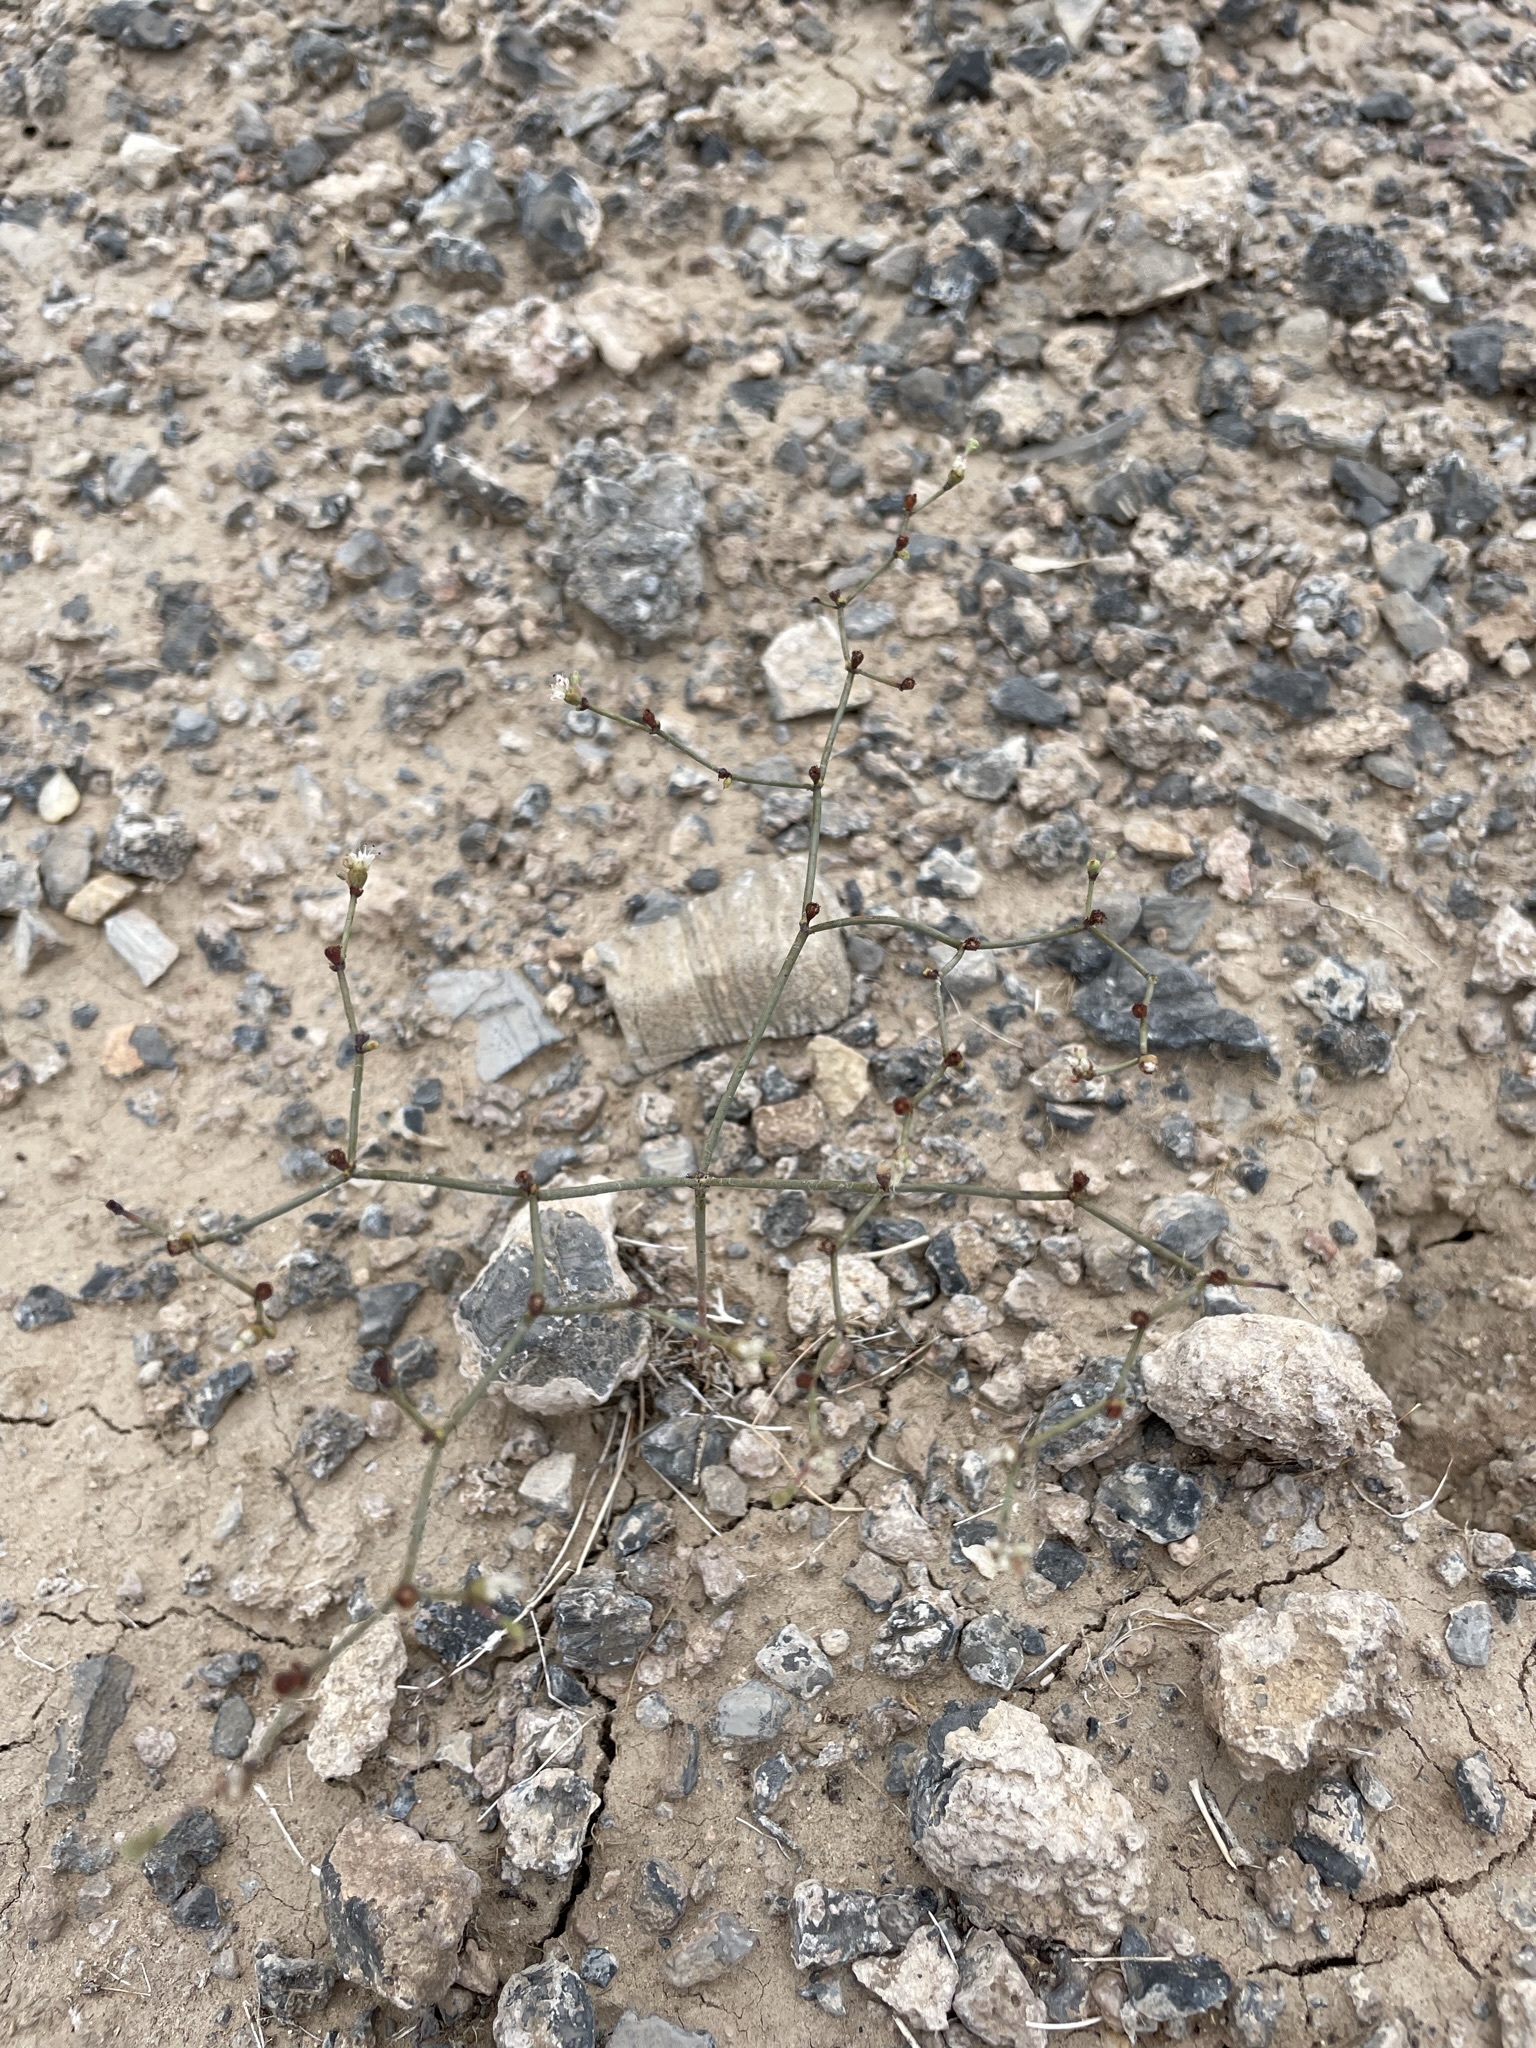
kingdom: Plantae
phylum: Tracheophyta
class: Magnoliopsida
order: Caryophyllales
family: Polygonaceae
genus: Eriogonum
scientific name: Eriogonum bifurcatum
